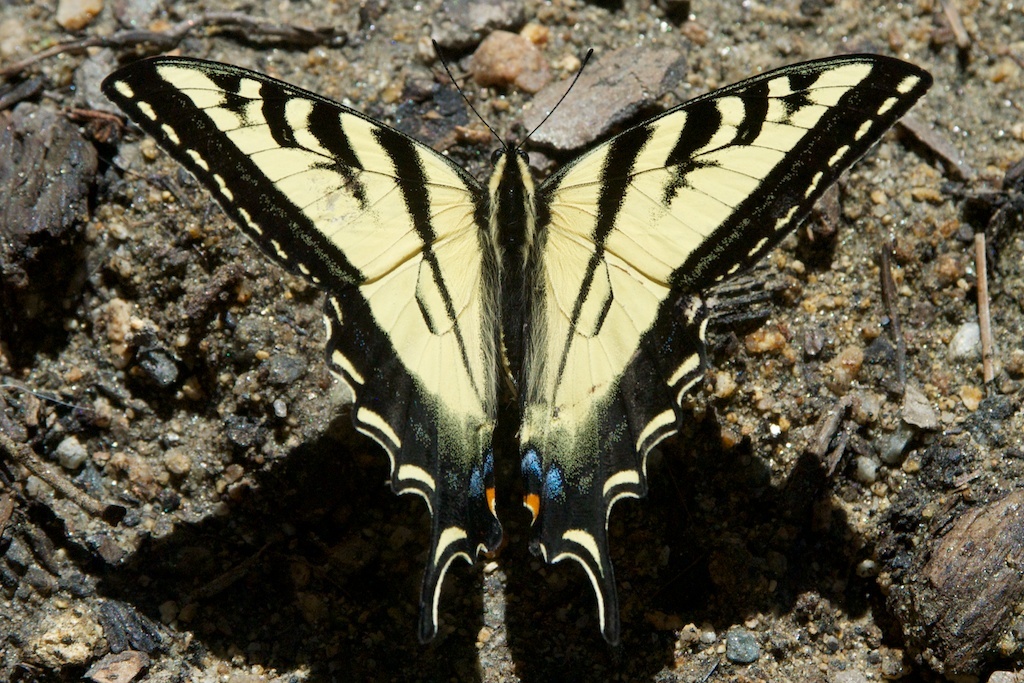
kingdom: Animalia
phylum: Arthropoda
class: Insecta
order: Lepidoptera
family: Papilionidae
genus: Papilio
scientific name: Papilio eurymedon
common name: Pale tiger swallowtail
